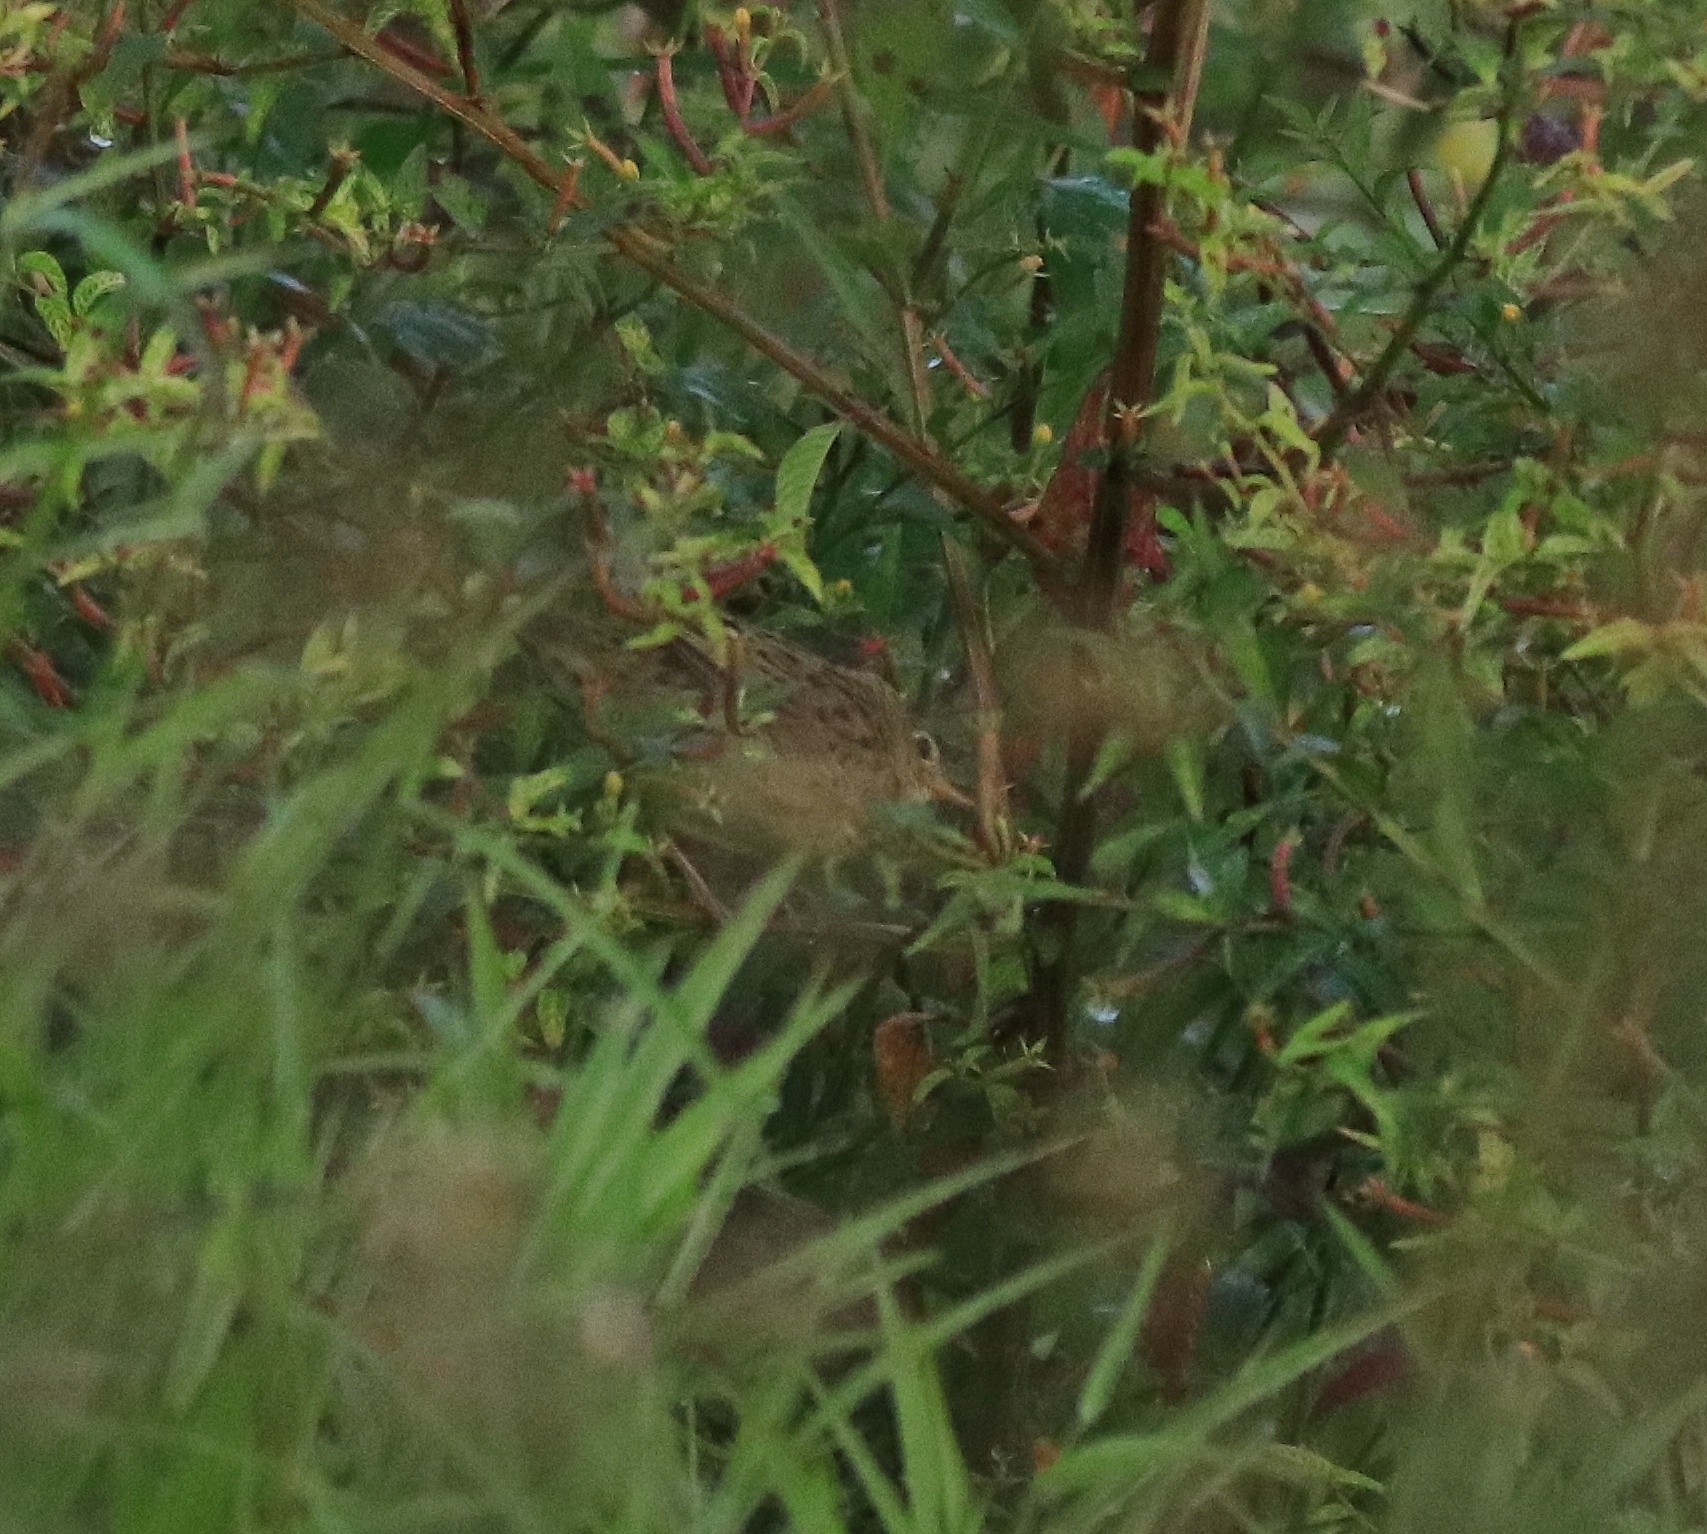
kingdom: Animalia
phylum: Chordata
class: Aves
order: Passeriformes
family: Locustellidae
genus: Locustella
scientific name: Locustella naevia
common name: Common grasshopper warbler
